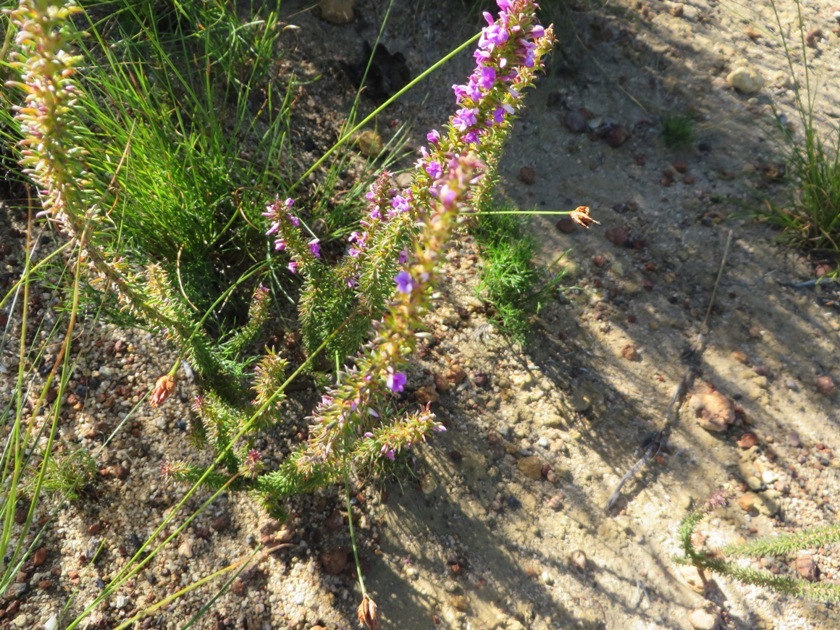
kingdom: Plantae
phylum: Tracheophyta
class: Magnoliopsida
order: Fabales
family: Polygalaceae
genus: Muraltia
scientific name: Muraltia heisteria
